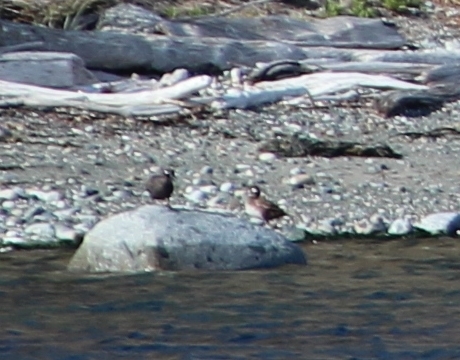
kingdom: Animalia
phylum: Chordata
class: Aves
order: Anseriformes
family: Anatidae
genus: Histrionicus
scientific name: Histrionicus histrionicus
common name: Harlequin duck
